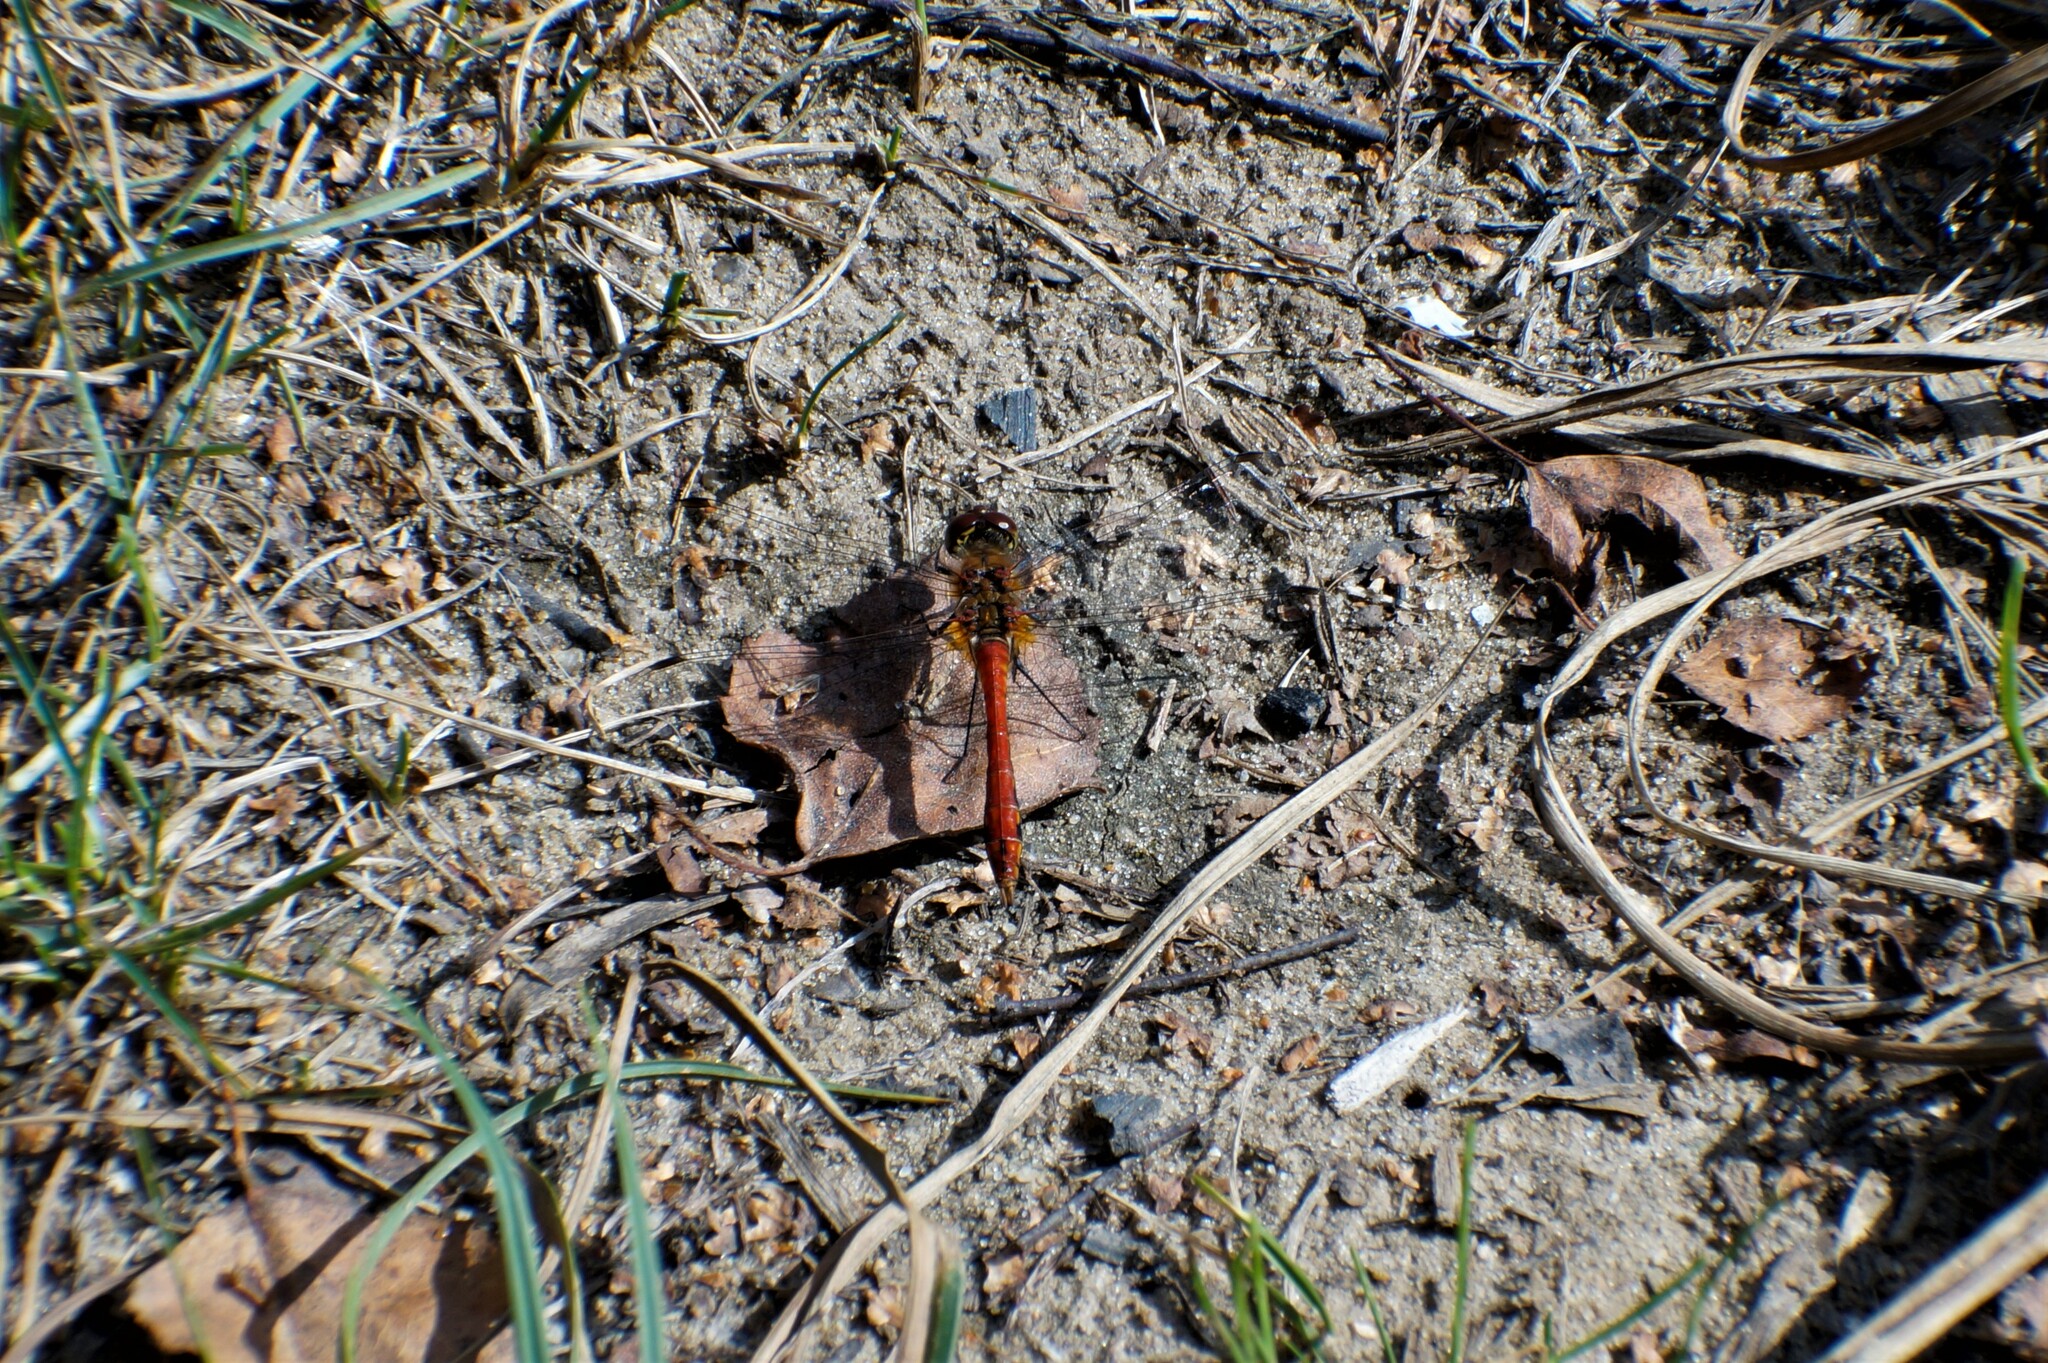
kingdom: Animalia
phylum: Arthropoda
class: Insecta
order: Odonata
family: Libellulidae
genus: Sympetrum
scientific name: Sympetrum sanguineum
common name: Ruddy darter
